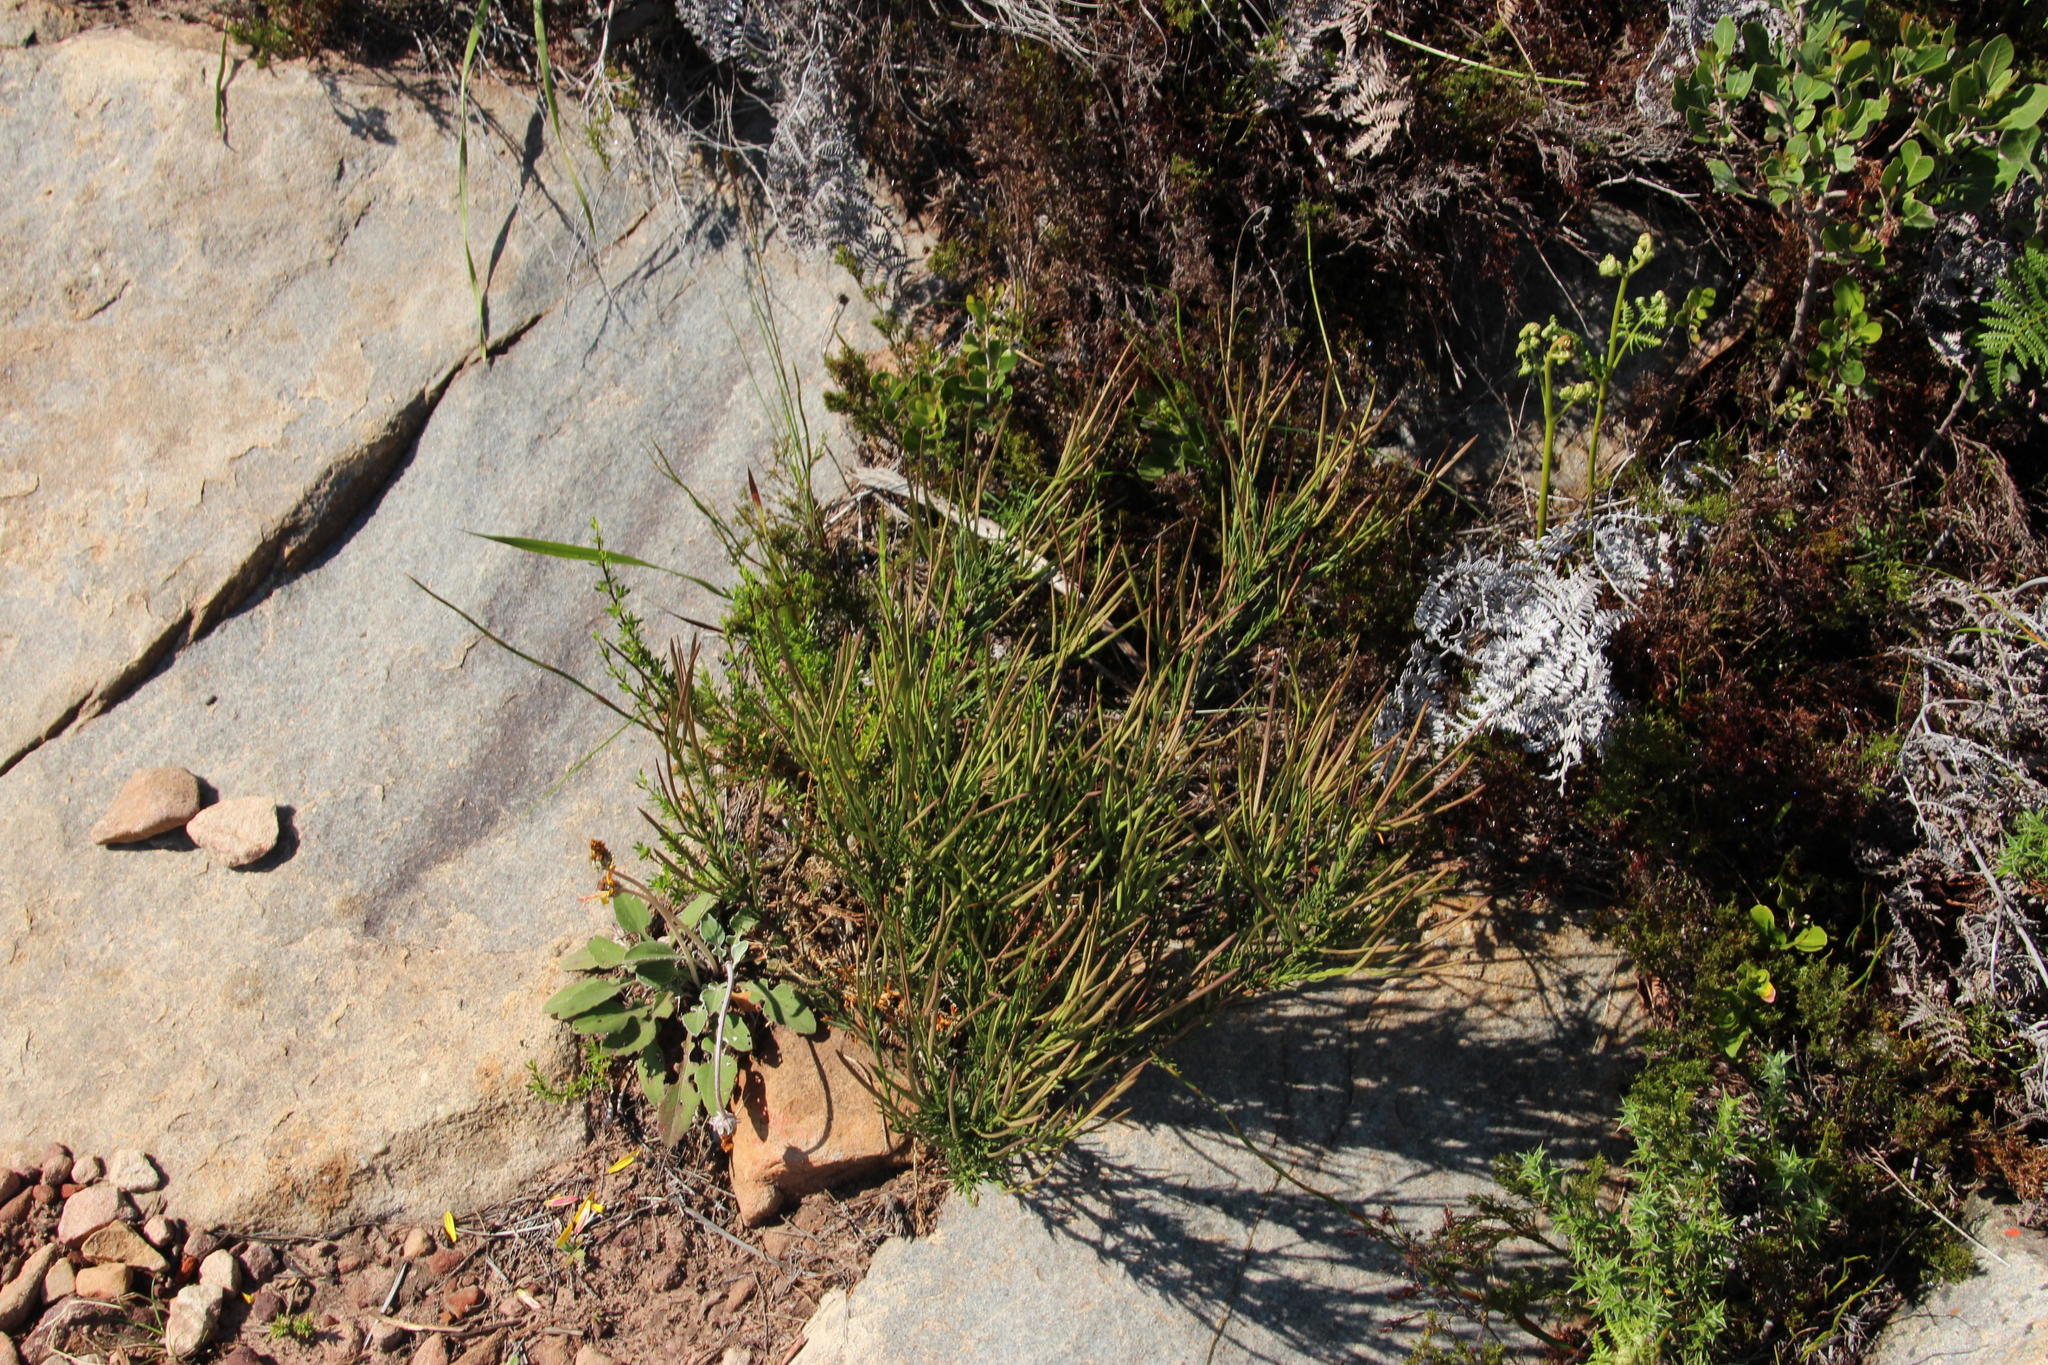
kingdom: Plantae
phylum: Tracheophyta
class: Magnoliopsida
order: Brassicales
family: Brassicaceae
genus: Heliophila
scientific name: Heliophila scoparia
